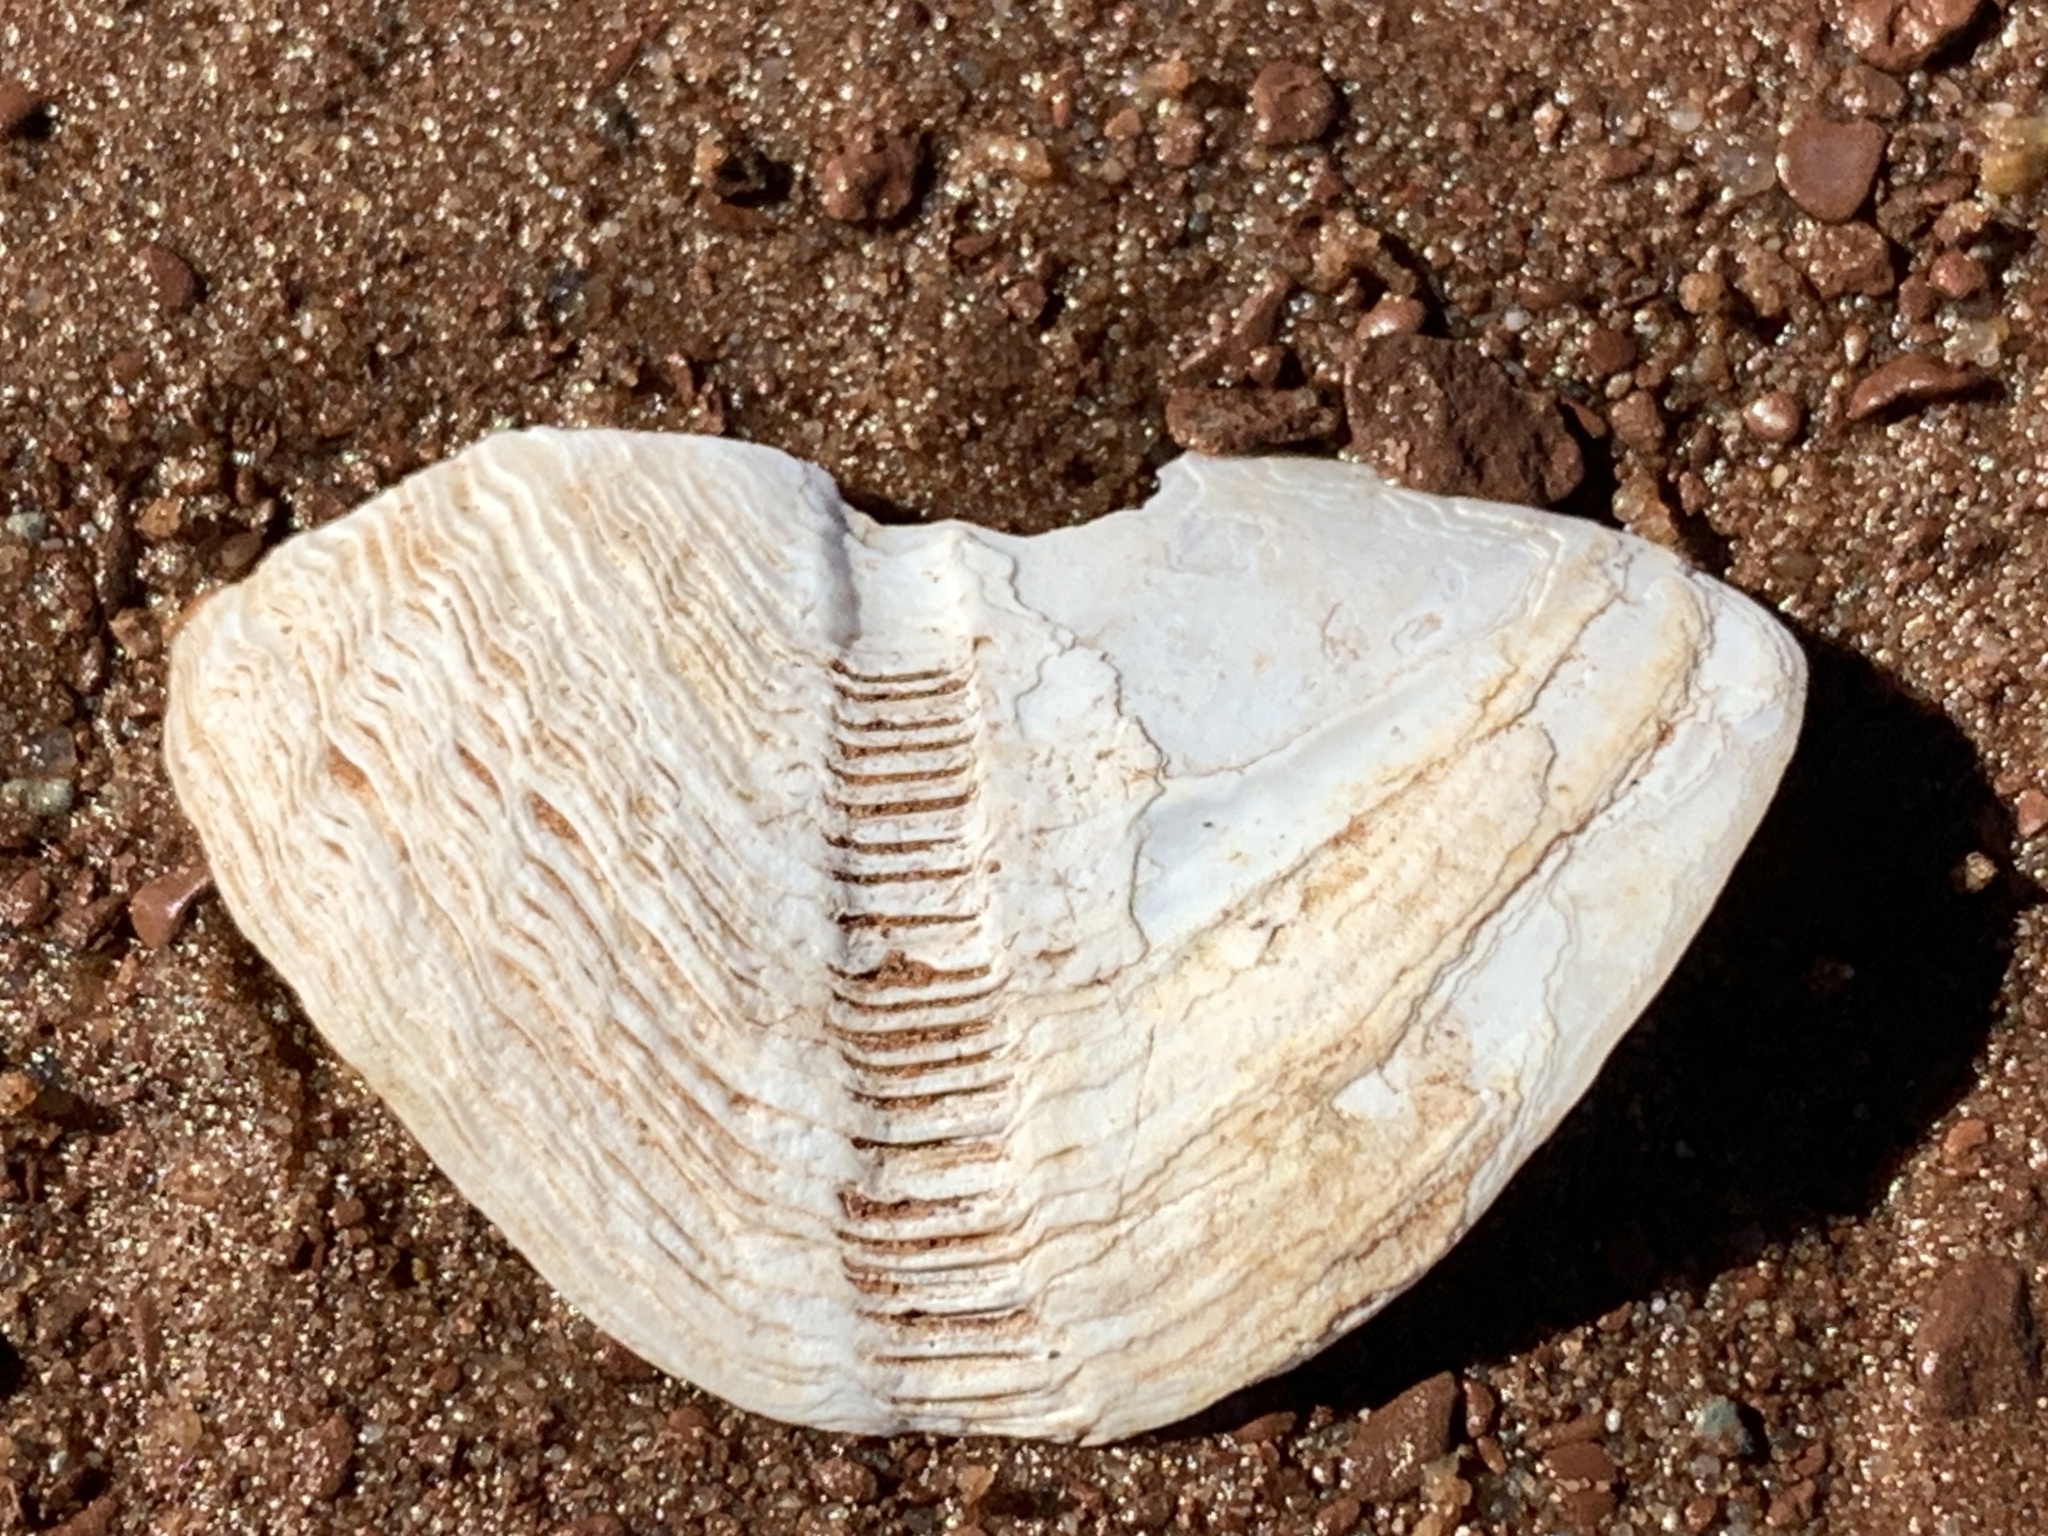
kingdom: Animalia
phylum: Mollusca
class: Bivalvia
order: Myida
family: Pholadidae
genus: Zirfaea
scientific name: Zirfaea crispata
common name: Oval piddock
